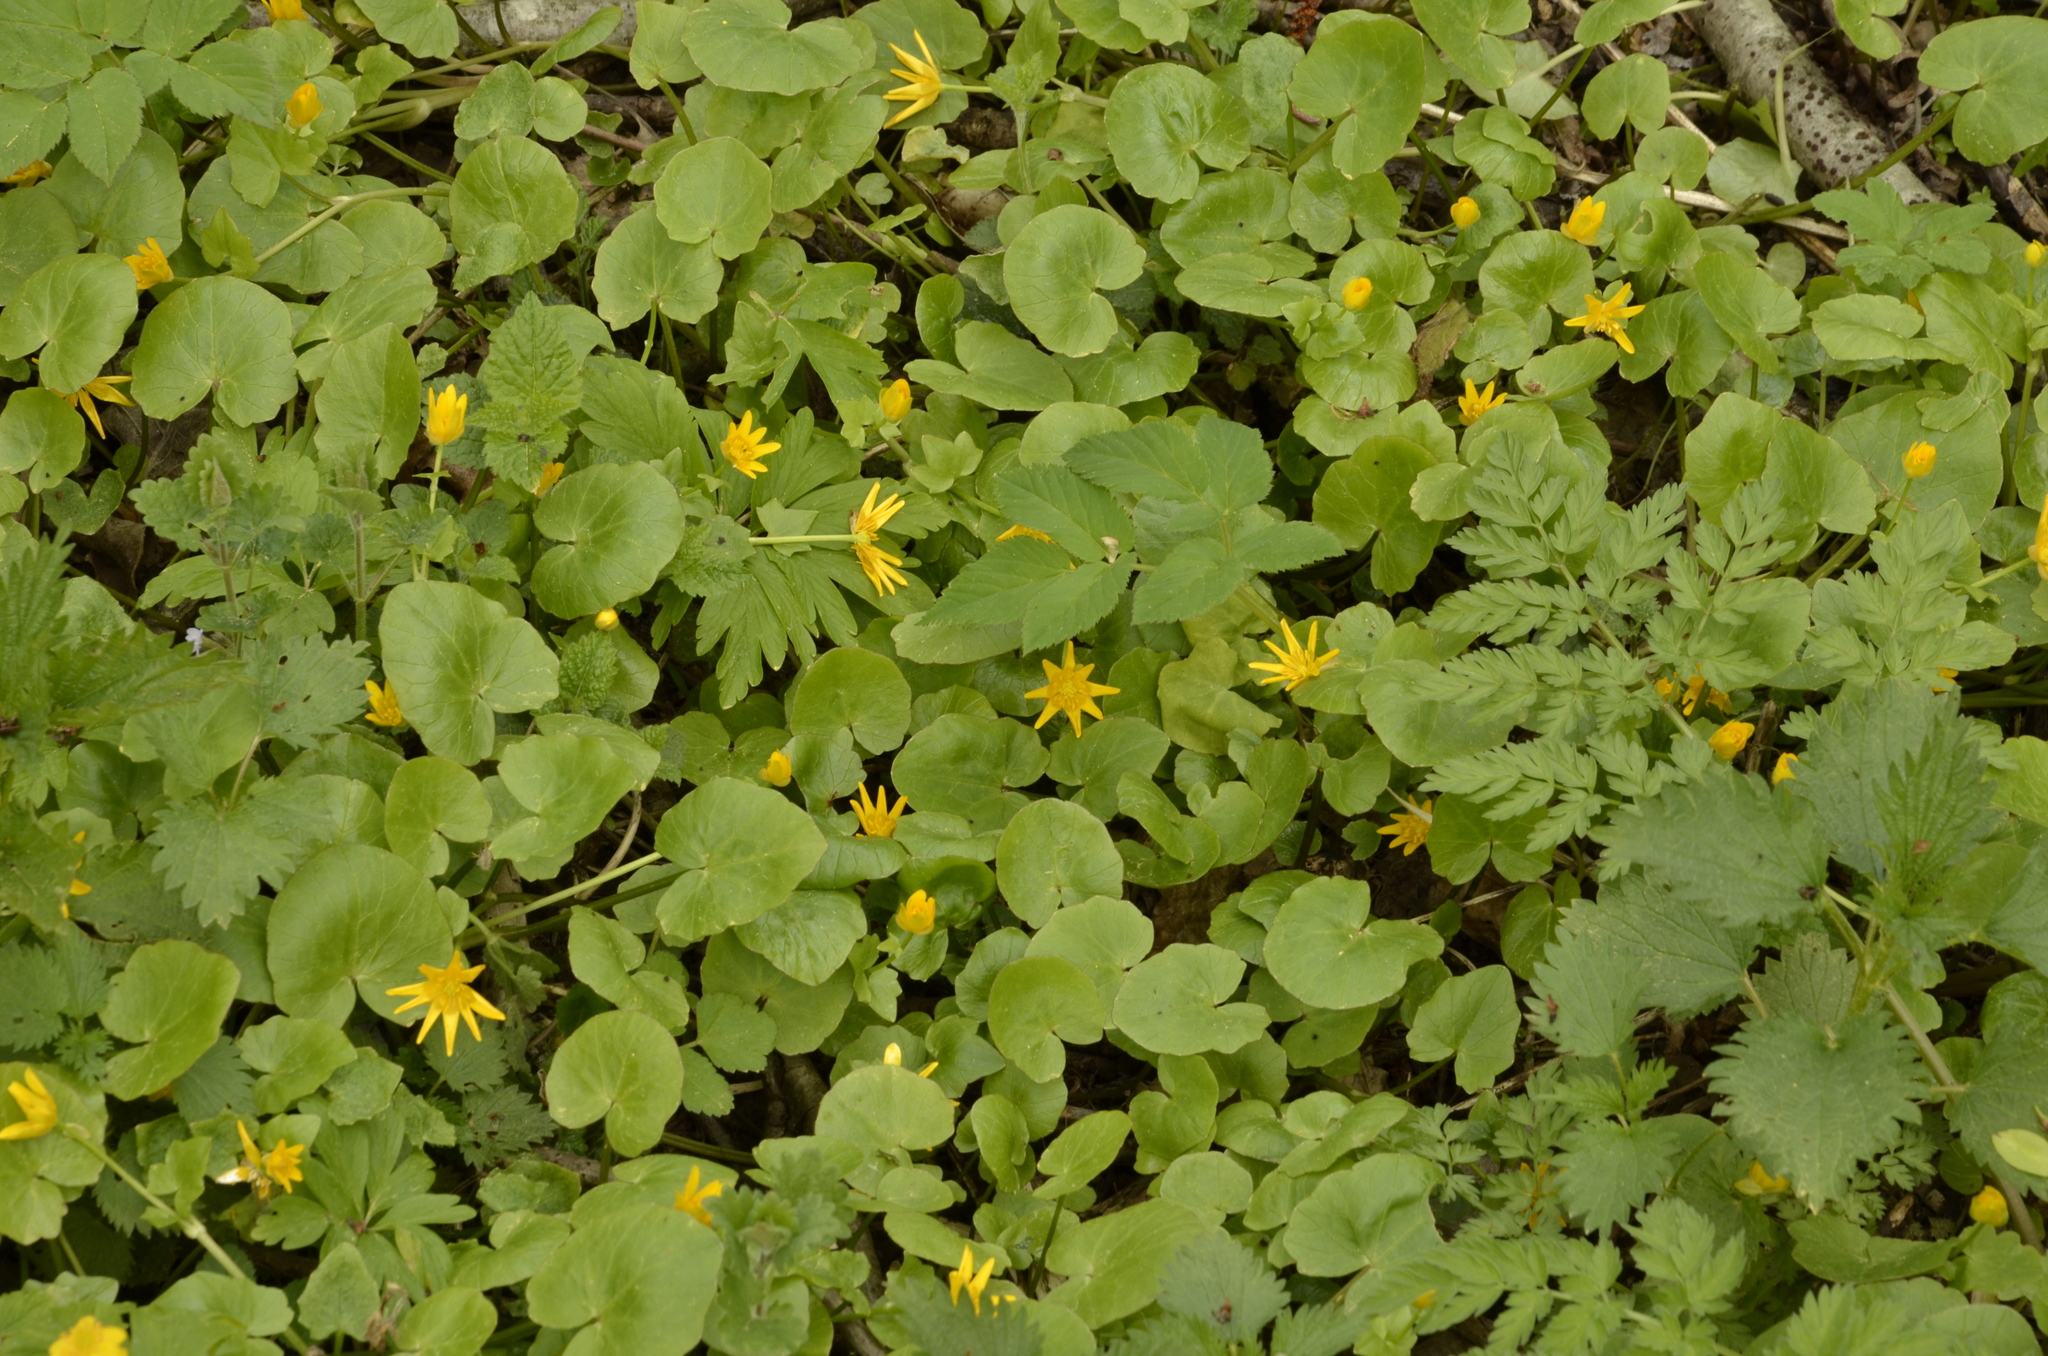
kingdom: Plantae
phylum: Tracheophyta
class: Magnoliopsida
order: Ranunculales
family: Ranunculaceae
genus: Ficaria
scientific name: Ficaria verna
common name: Lesser celandine
